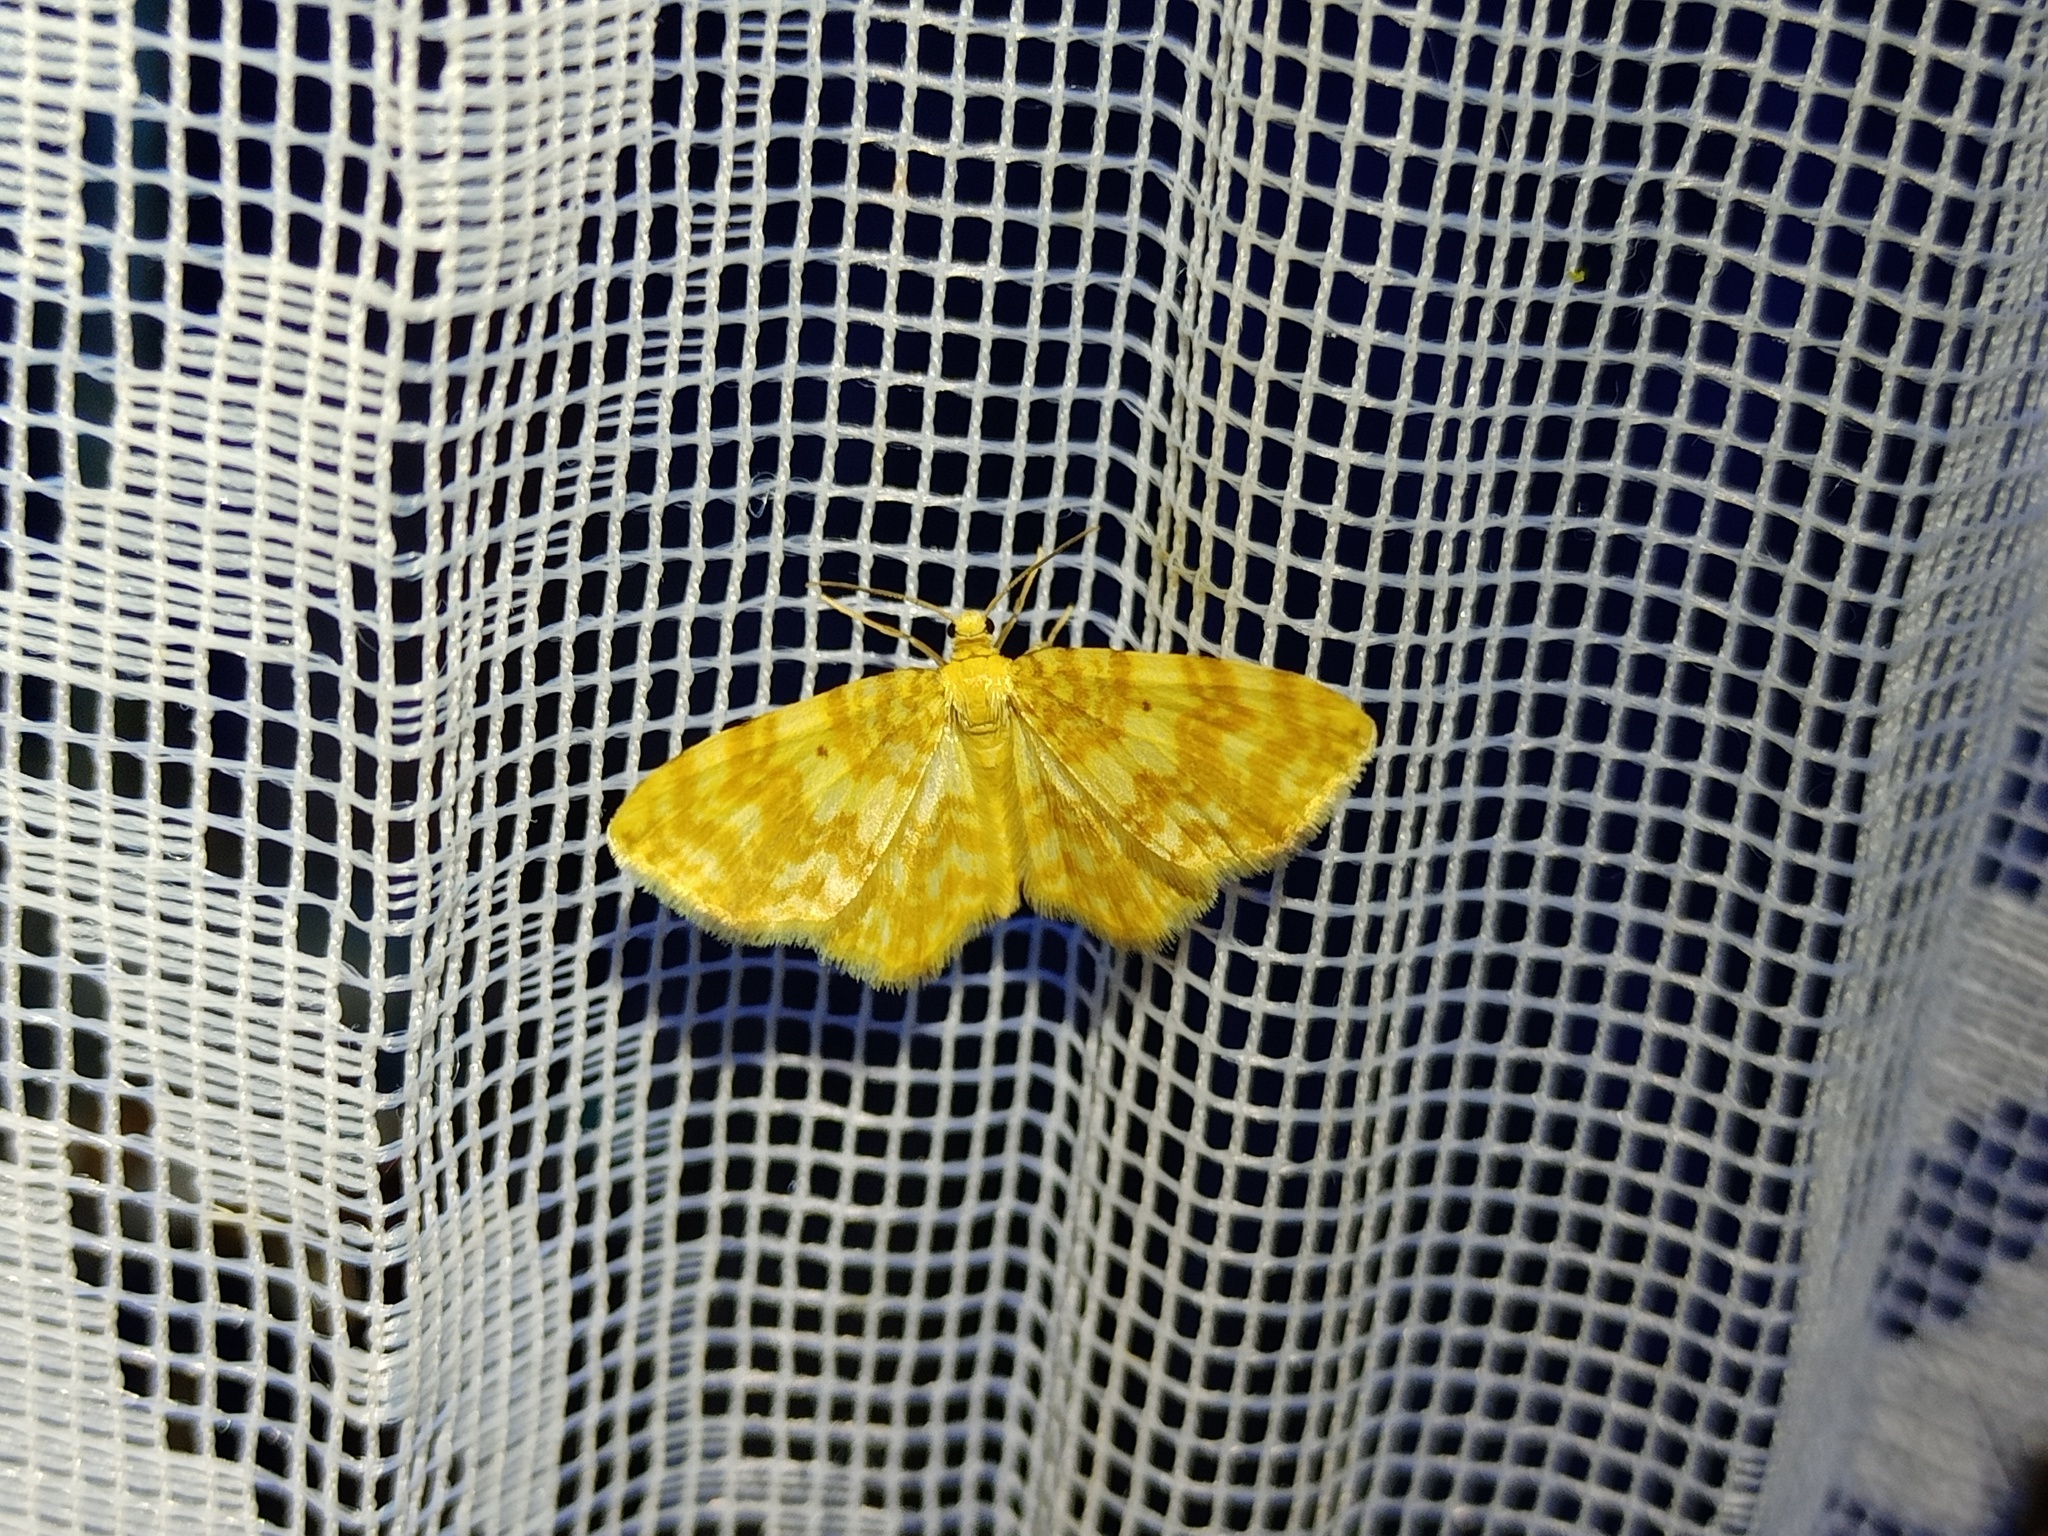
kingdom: Animalia
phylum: Arthropoda
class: Insecta
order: Lepidoptera
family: Geometridae
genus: Hydrelia
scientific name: Hydrelia flammeolaria
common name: Small yellow wave
